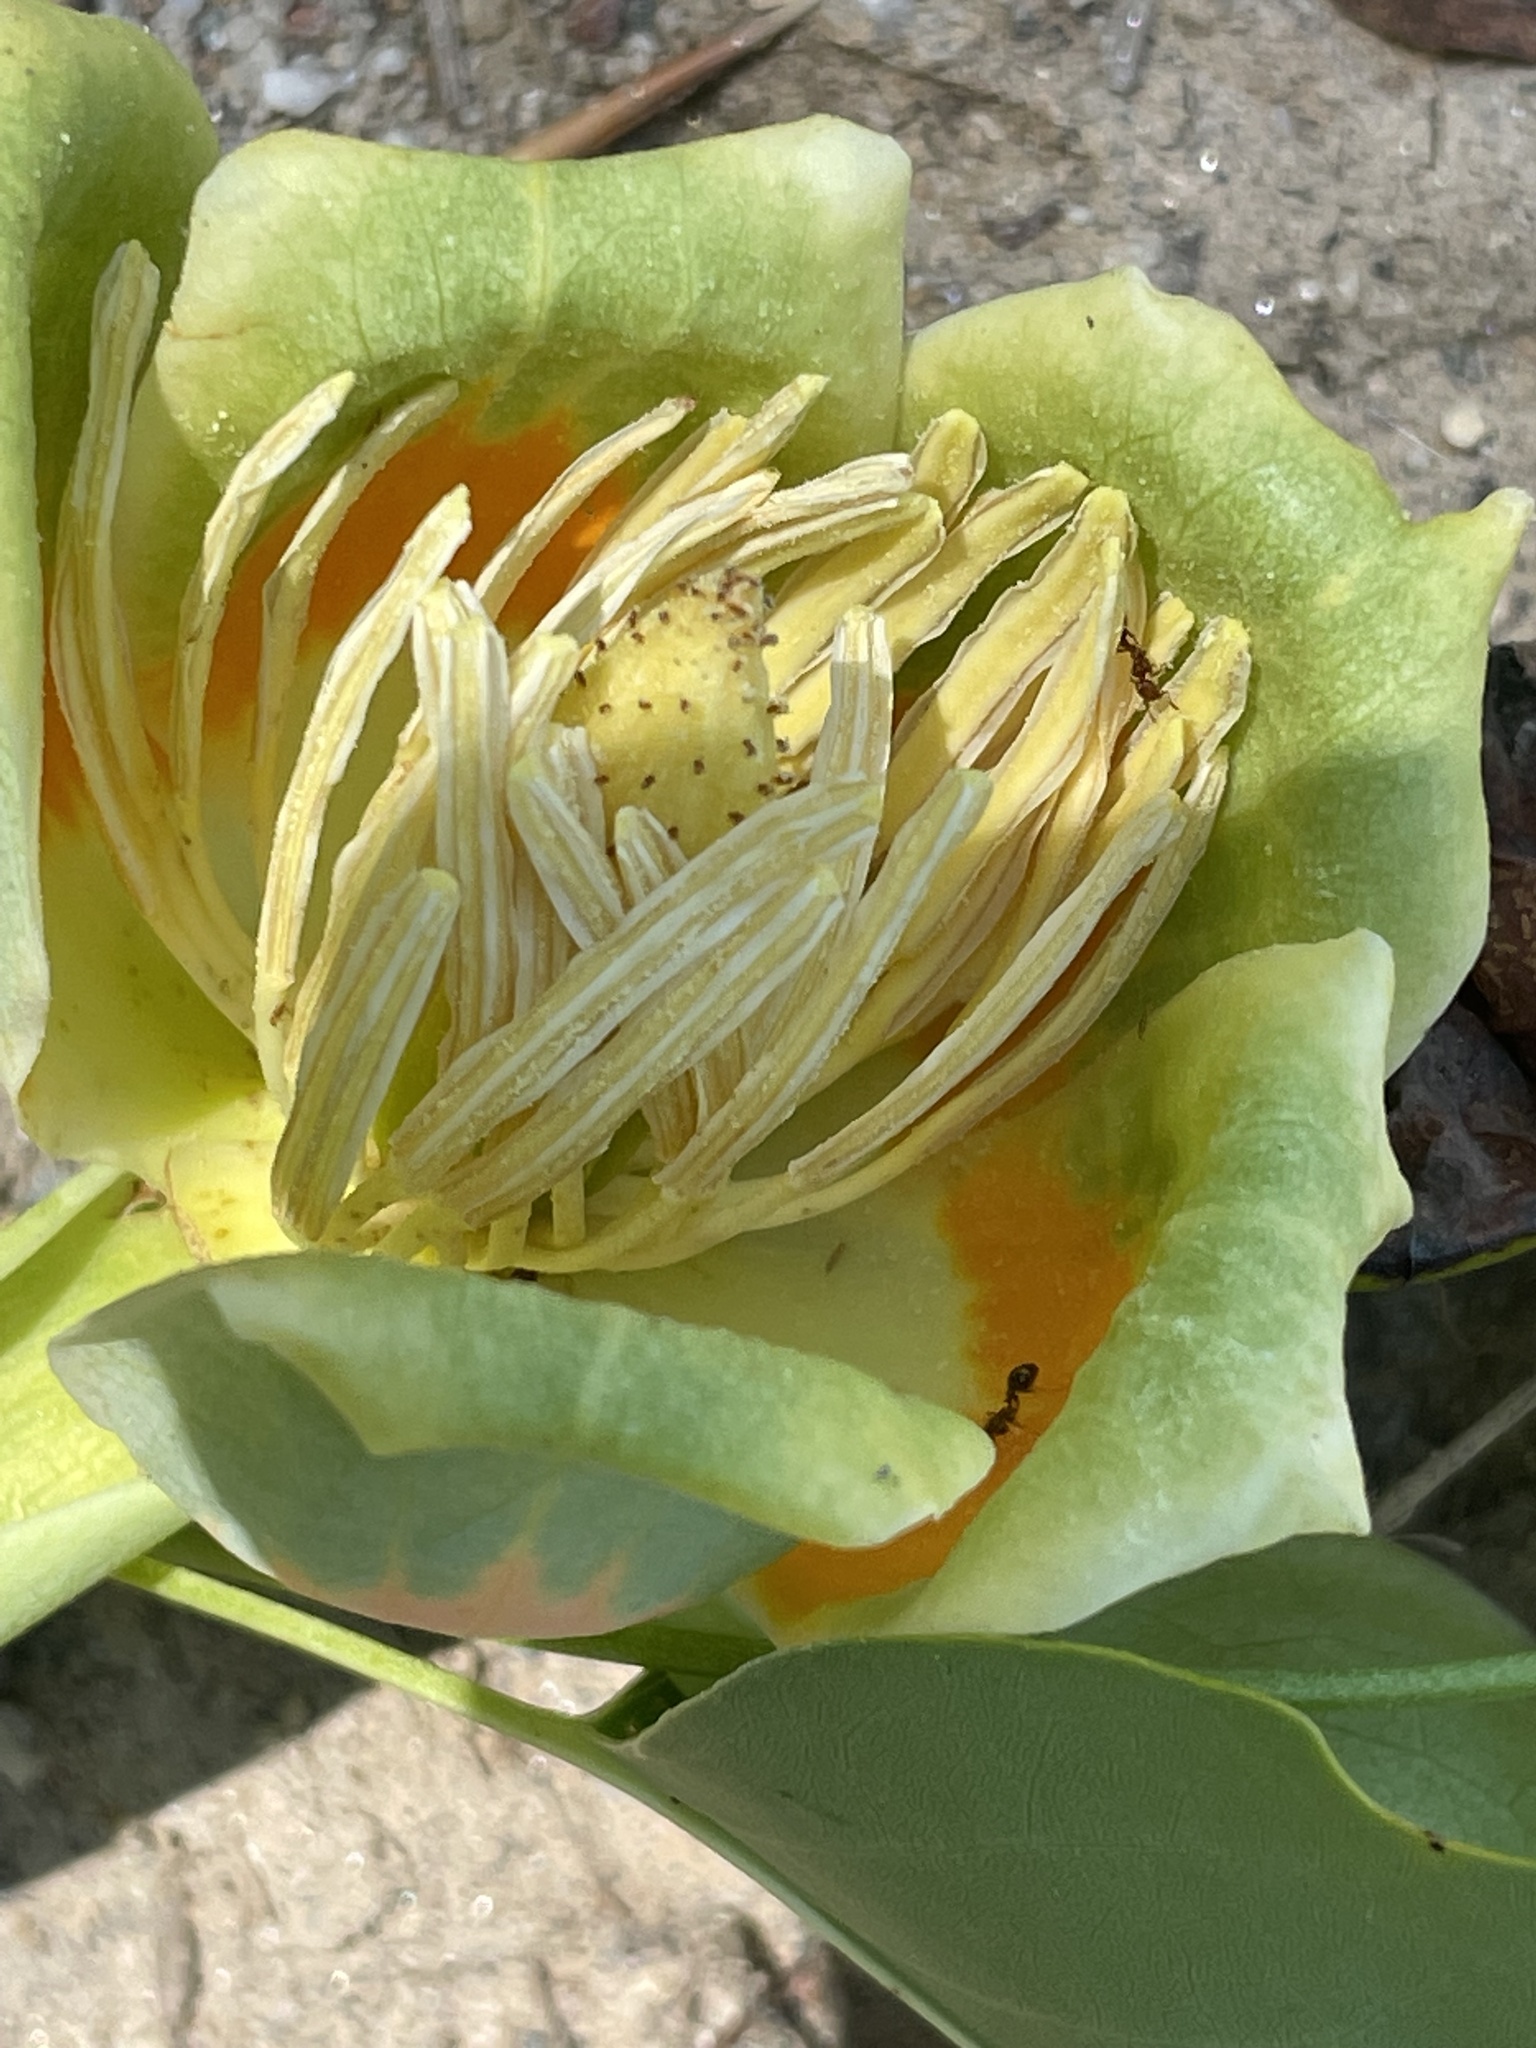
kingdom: Plantae
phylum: Tracheophyta
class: Magnoliopsida
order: Magnoliales
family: Magnoliaceae
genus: Liriodendron
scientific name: Liriodendron tulipifera
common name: Tulip tree
